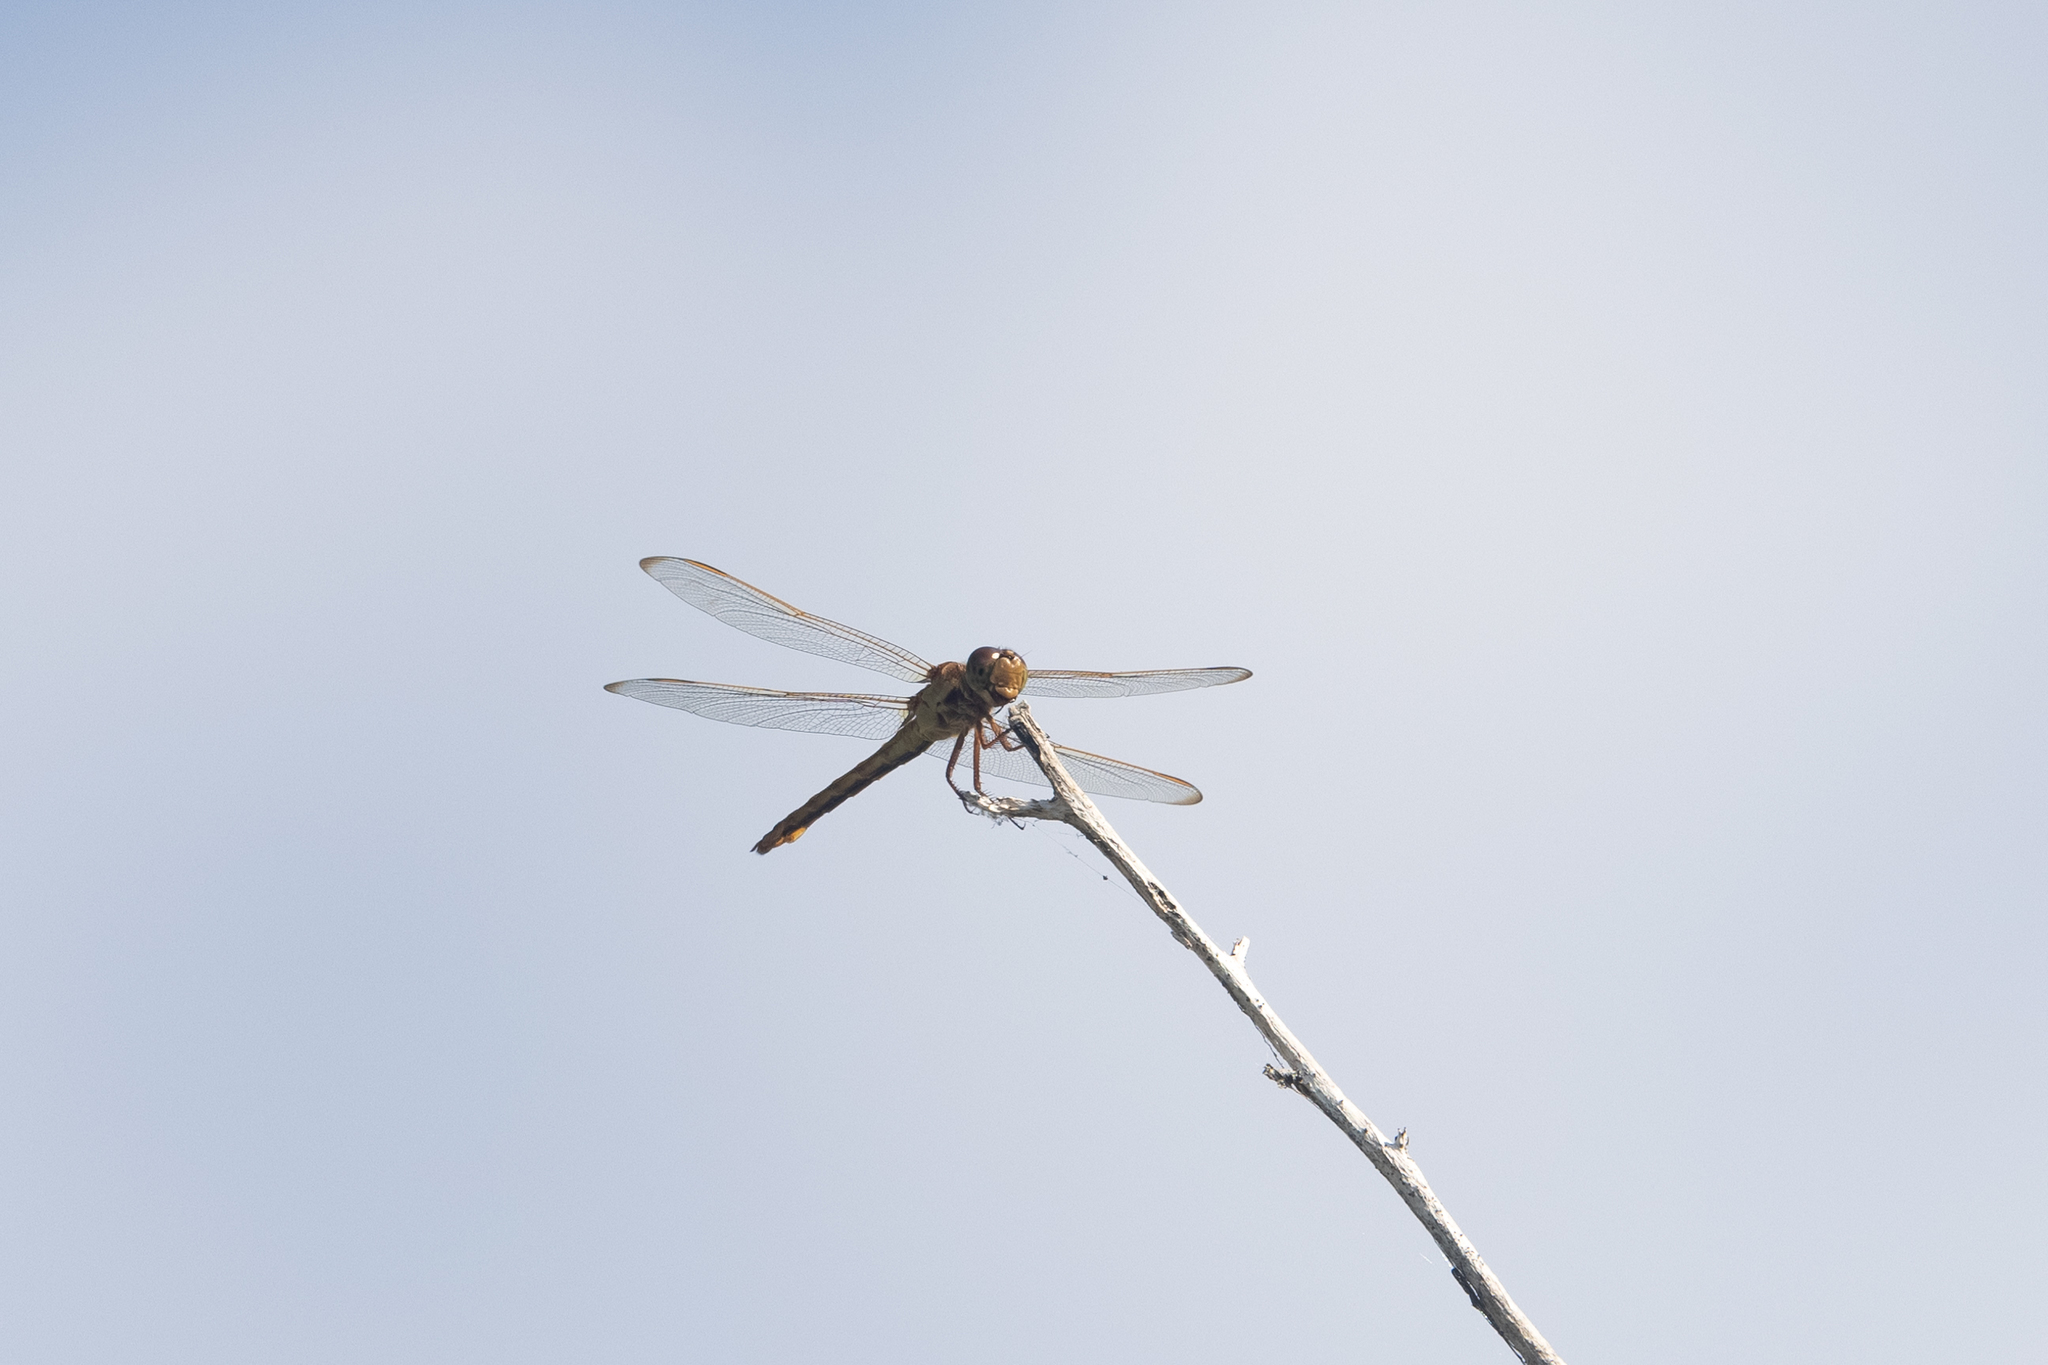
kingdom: Animalia
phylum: Arthropoda
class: Insecta
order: Odonata
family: Libellulidae
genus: Libellula
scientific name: Libellula needhami
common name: Needham's skimmer
